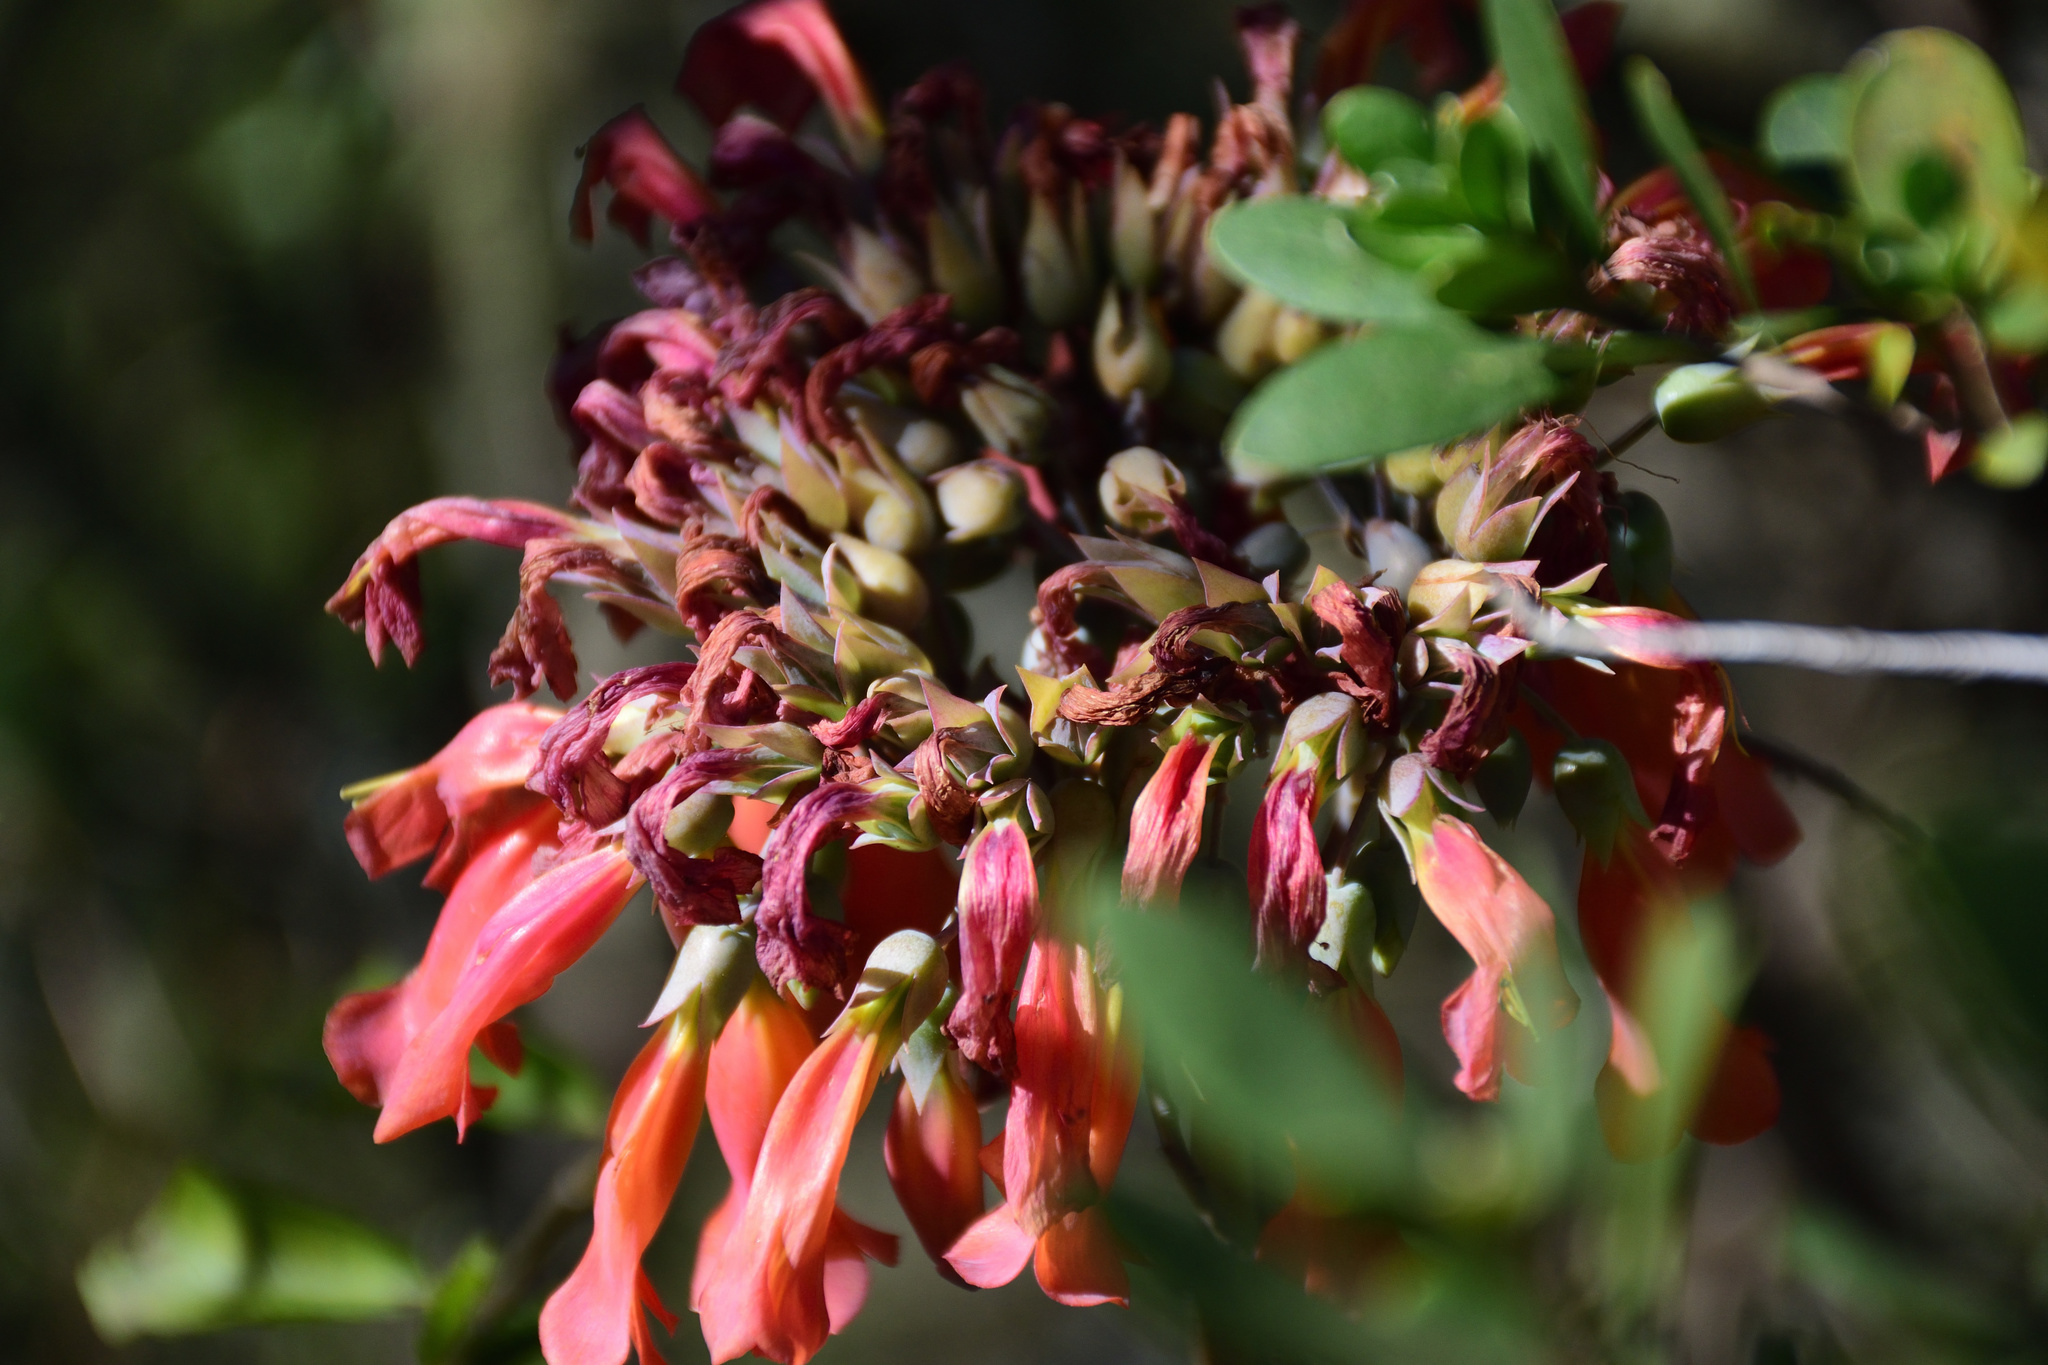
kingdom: Plantae
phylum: Tracheophyta
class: Magnoliopsida
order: Saxifragales
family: Crassulaceae
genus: Kalanchoe
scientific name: Kalanchoe delagoensis
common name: Chandelier plant
